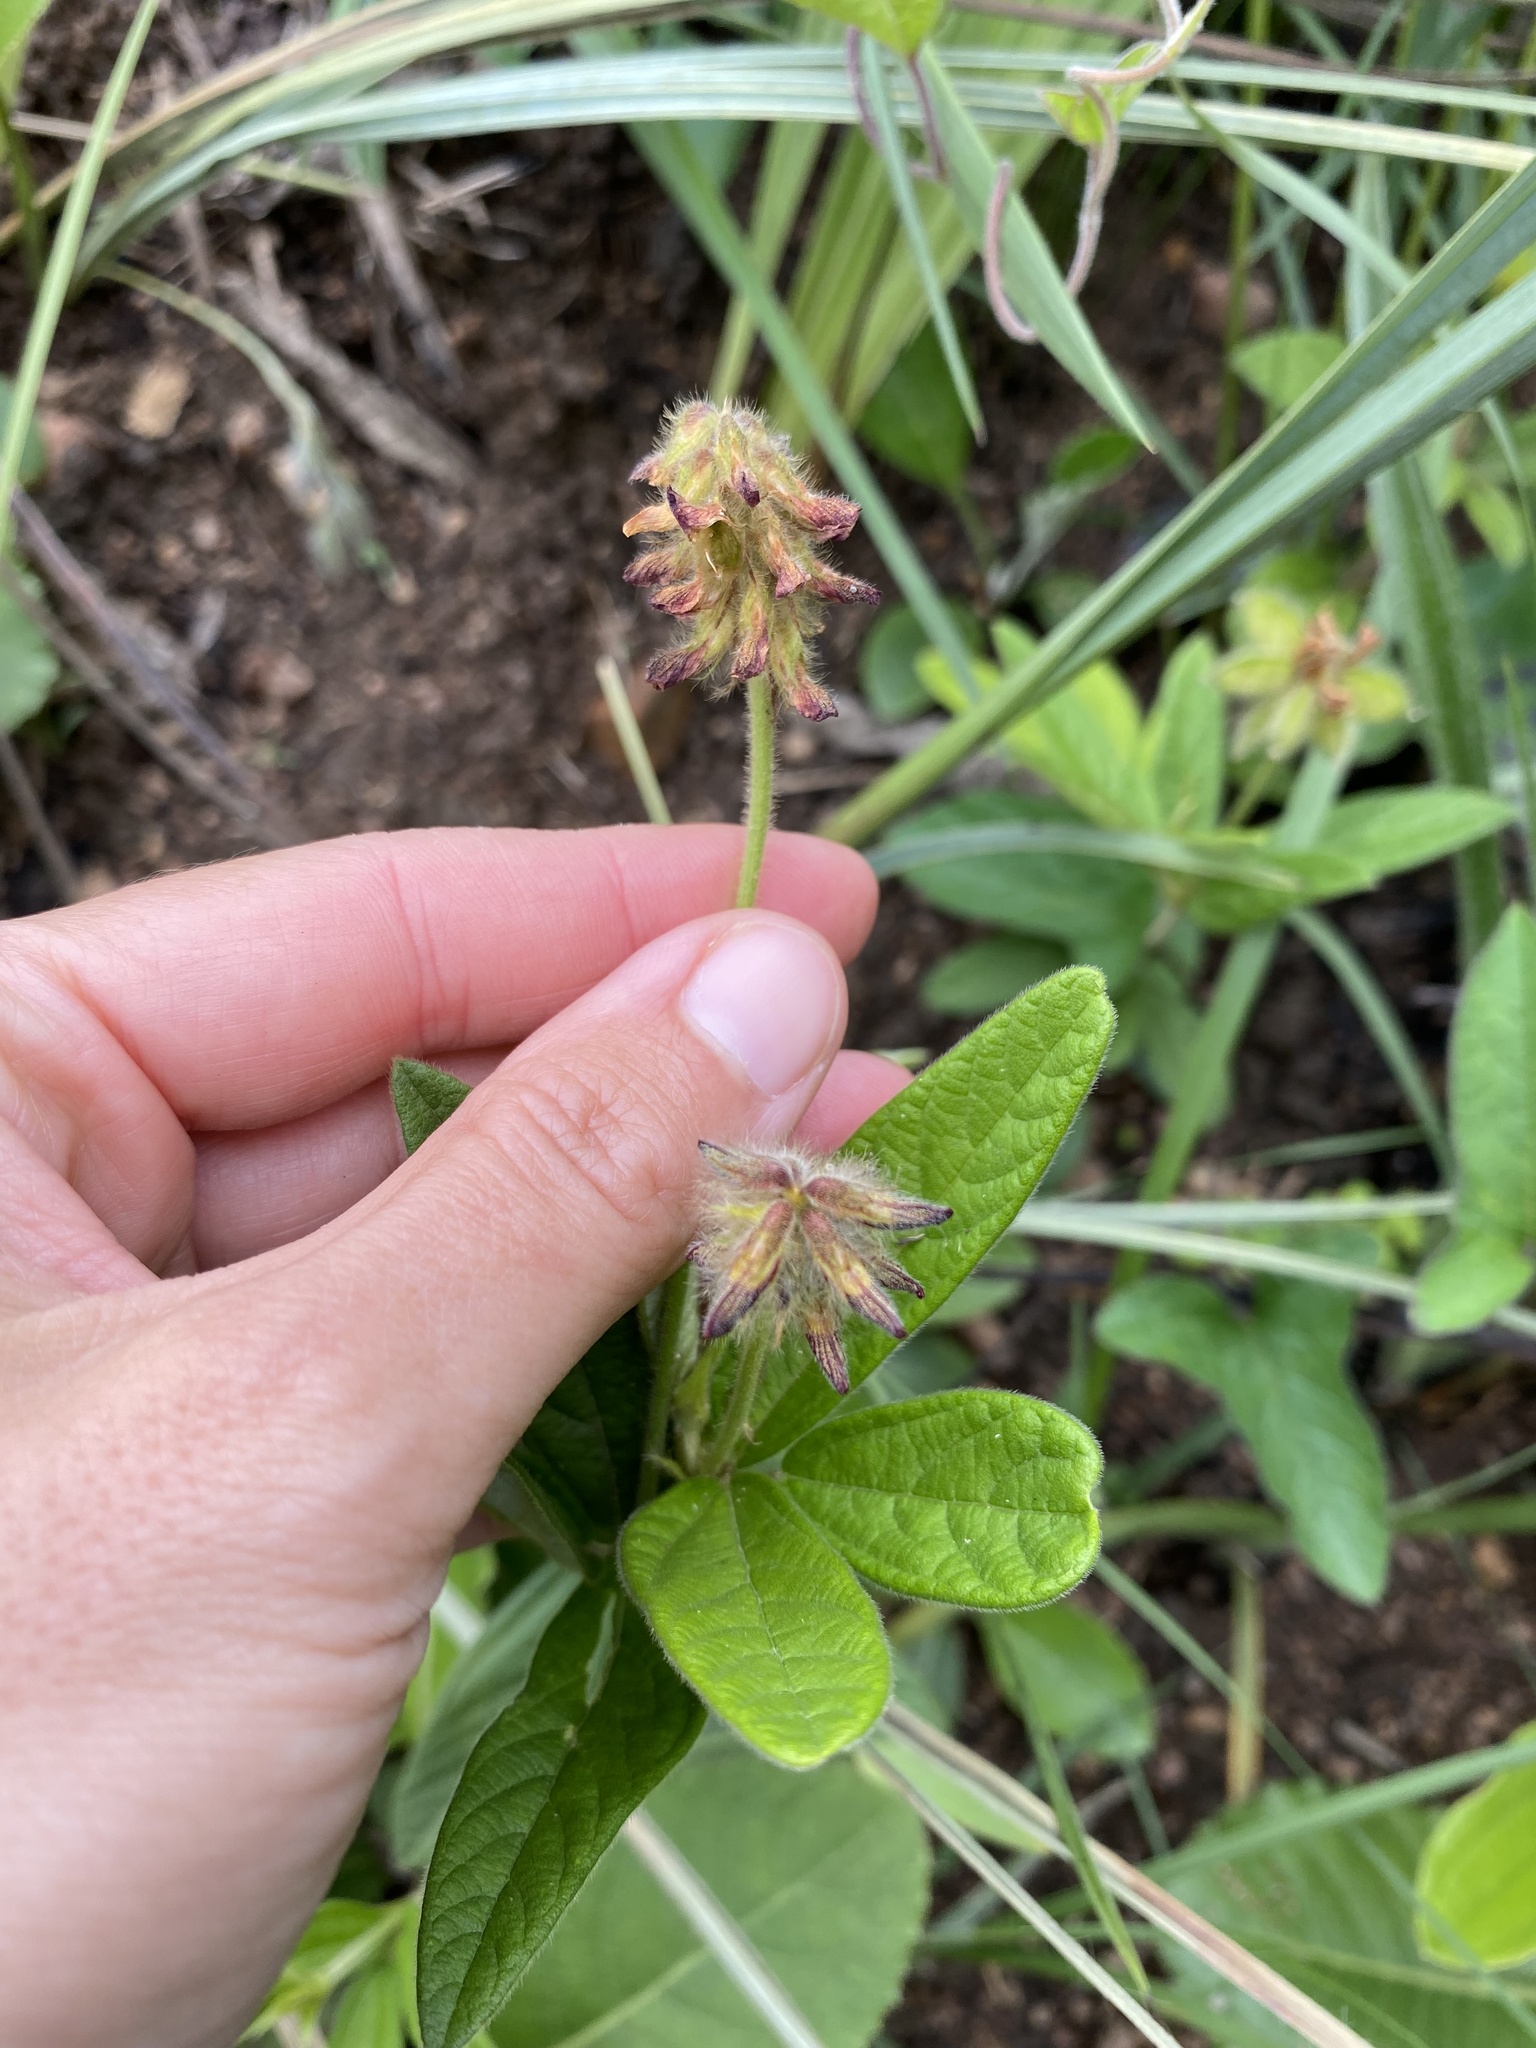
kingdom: Plantae
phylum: Tracheophyta
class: Magnoliopsida
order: Fabales
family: Fabaceae
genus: Eriosema
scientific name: Eriosema preptum
